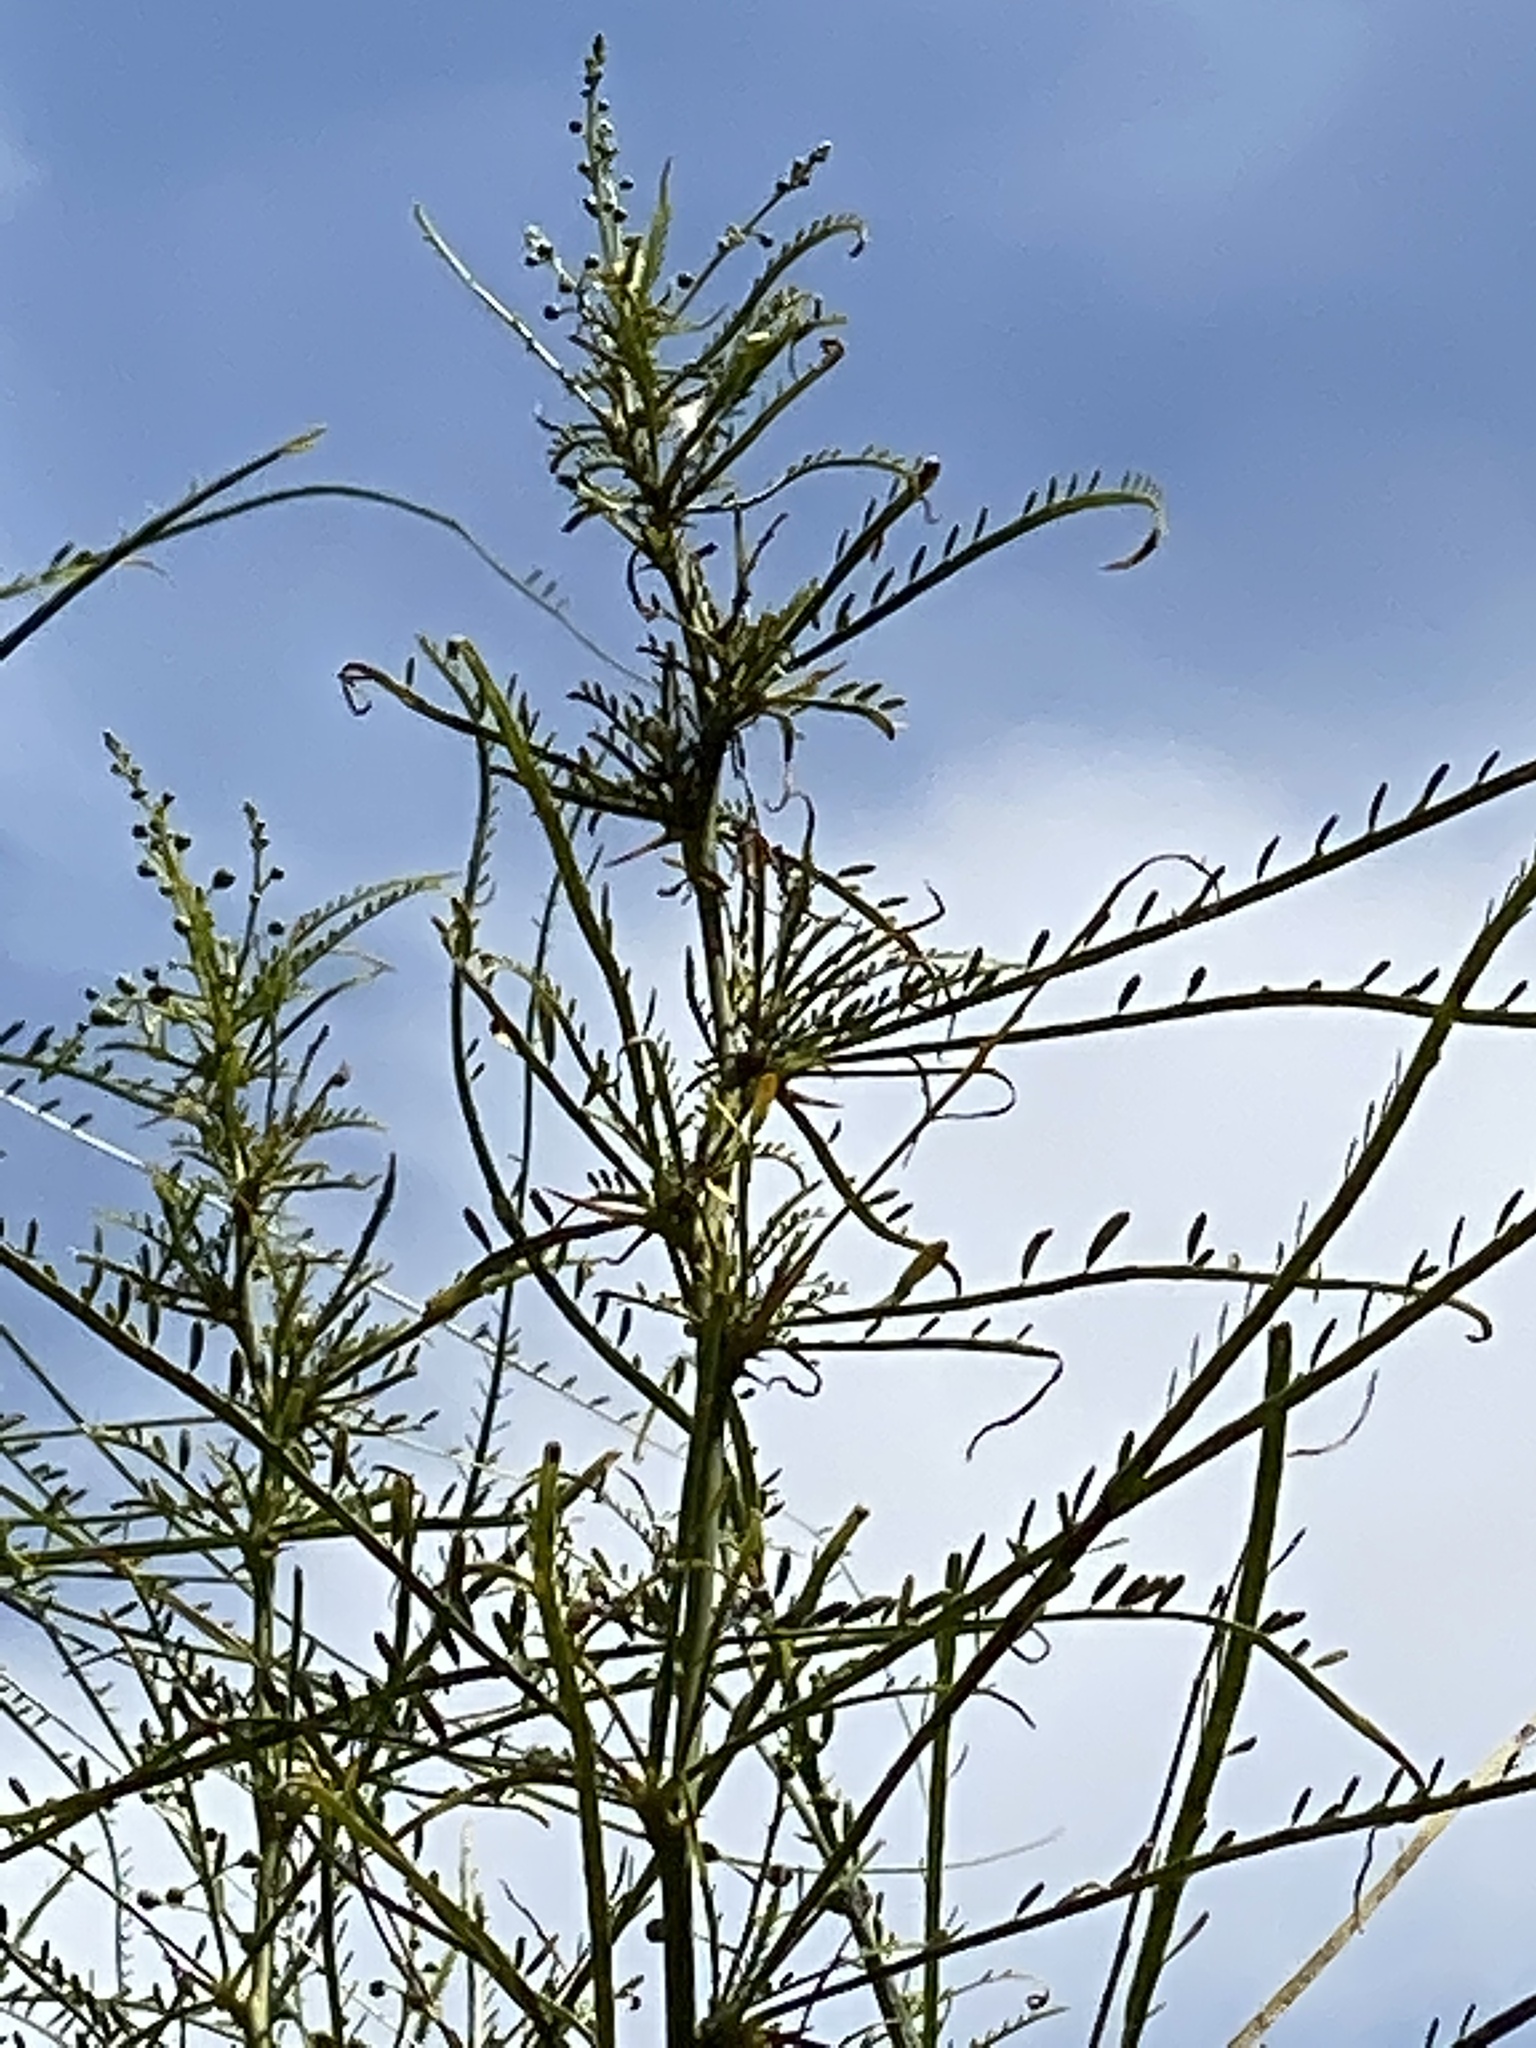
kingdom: Plantae
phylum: Tracheophyta
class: Magnoliopsida
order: Fabales
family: Fabaceae
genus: Parkinsonia
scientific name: Parkinsonia aculeata
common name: Jerusalem thorn
